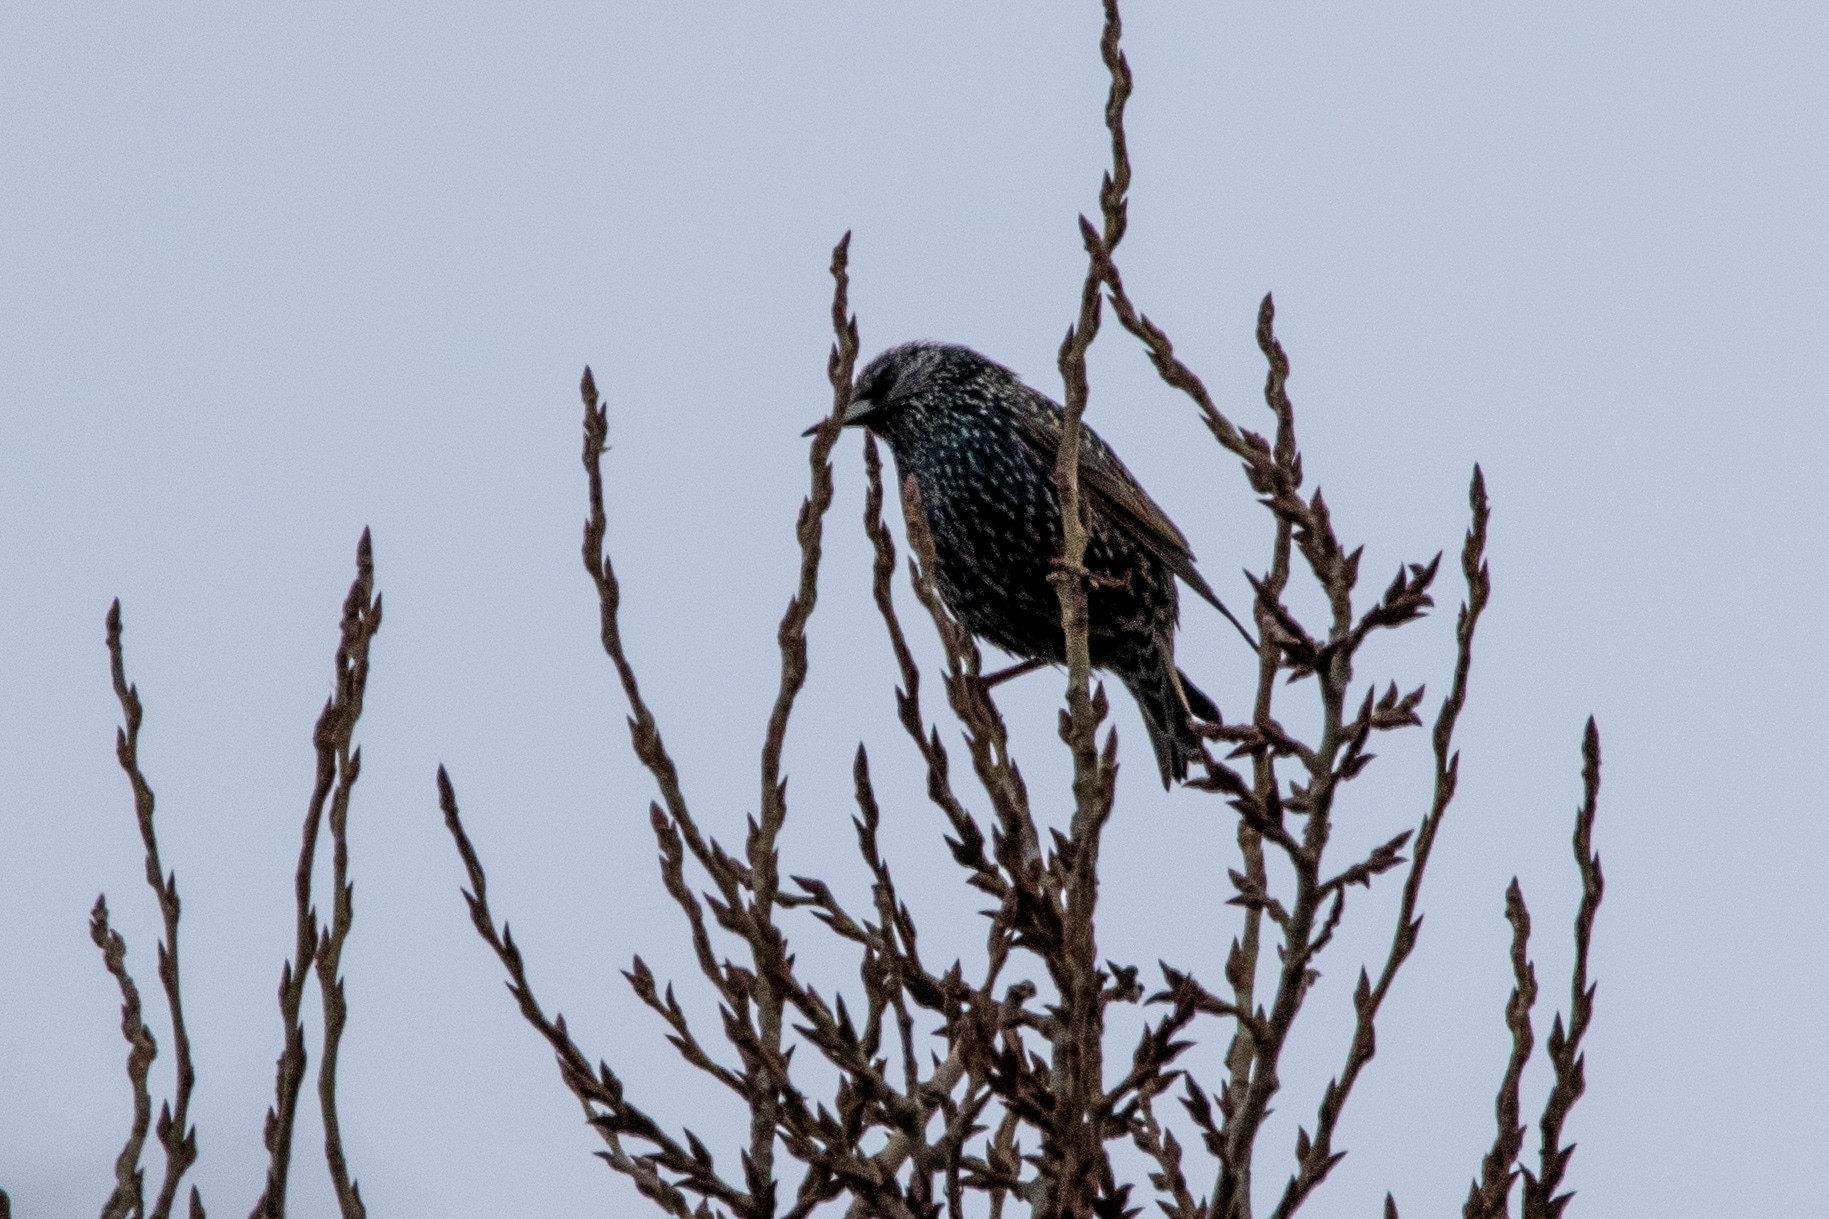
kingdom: Animalia
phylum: Chordata
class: Aves
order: Passeriformes
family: Sturnidae
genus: Sturnus
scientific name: Sturnus vulgaris
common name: Common starling
